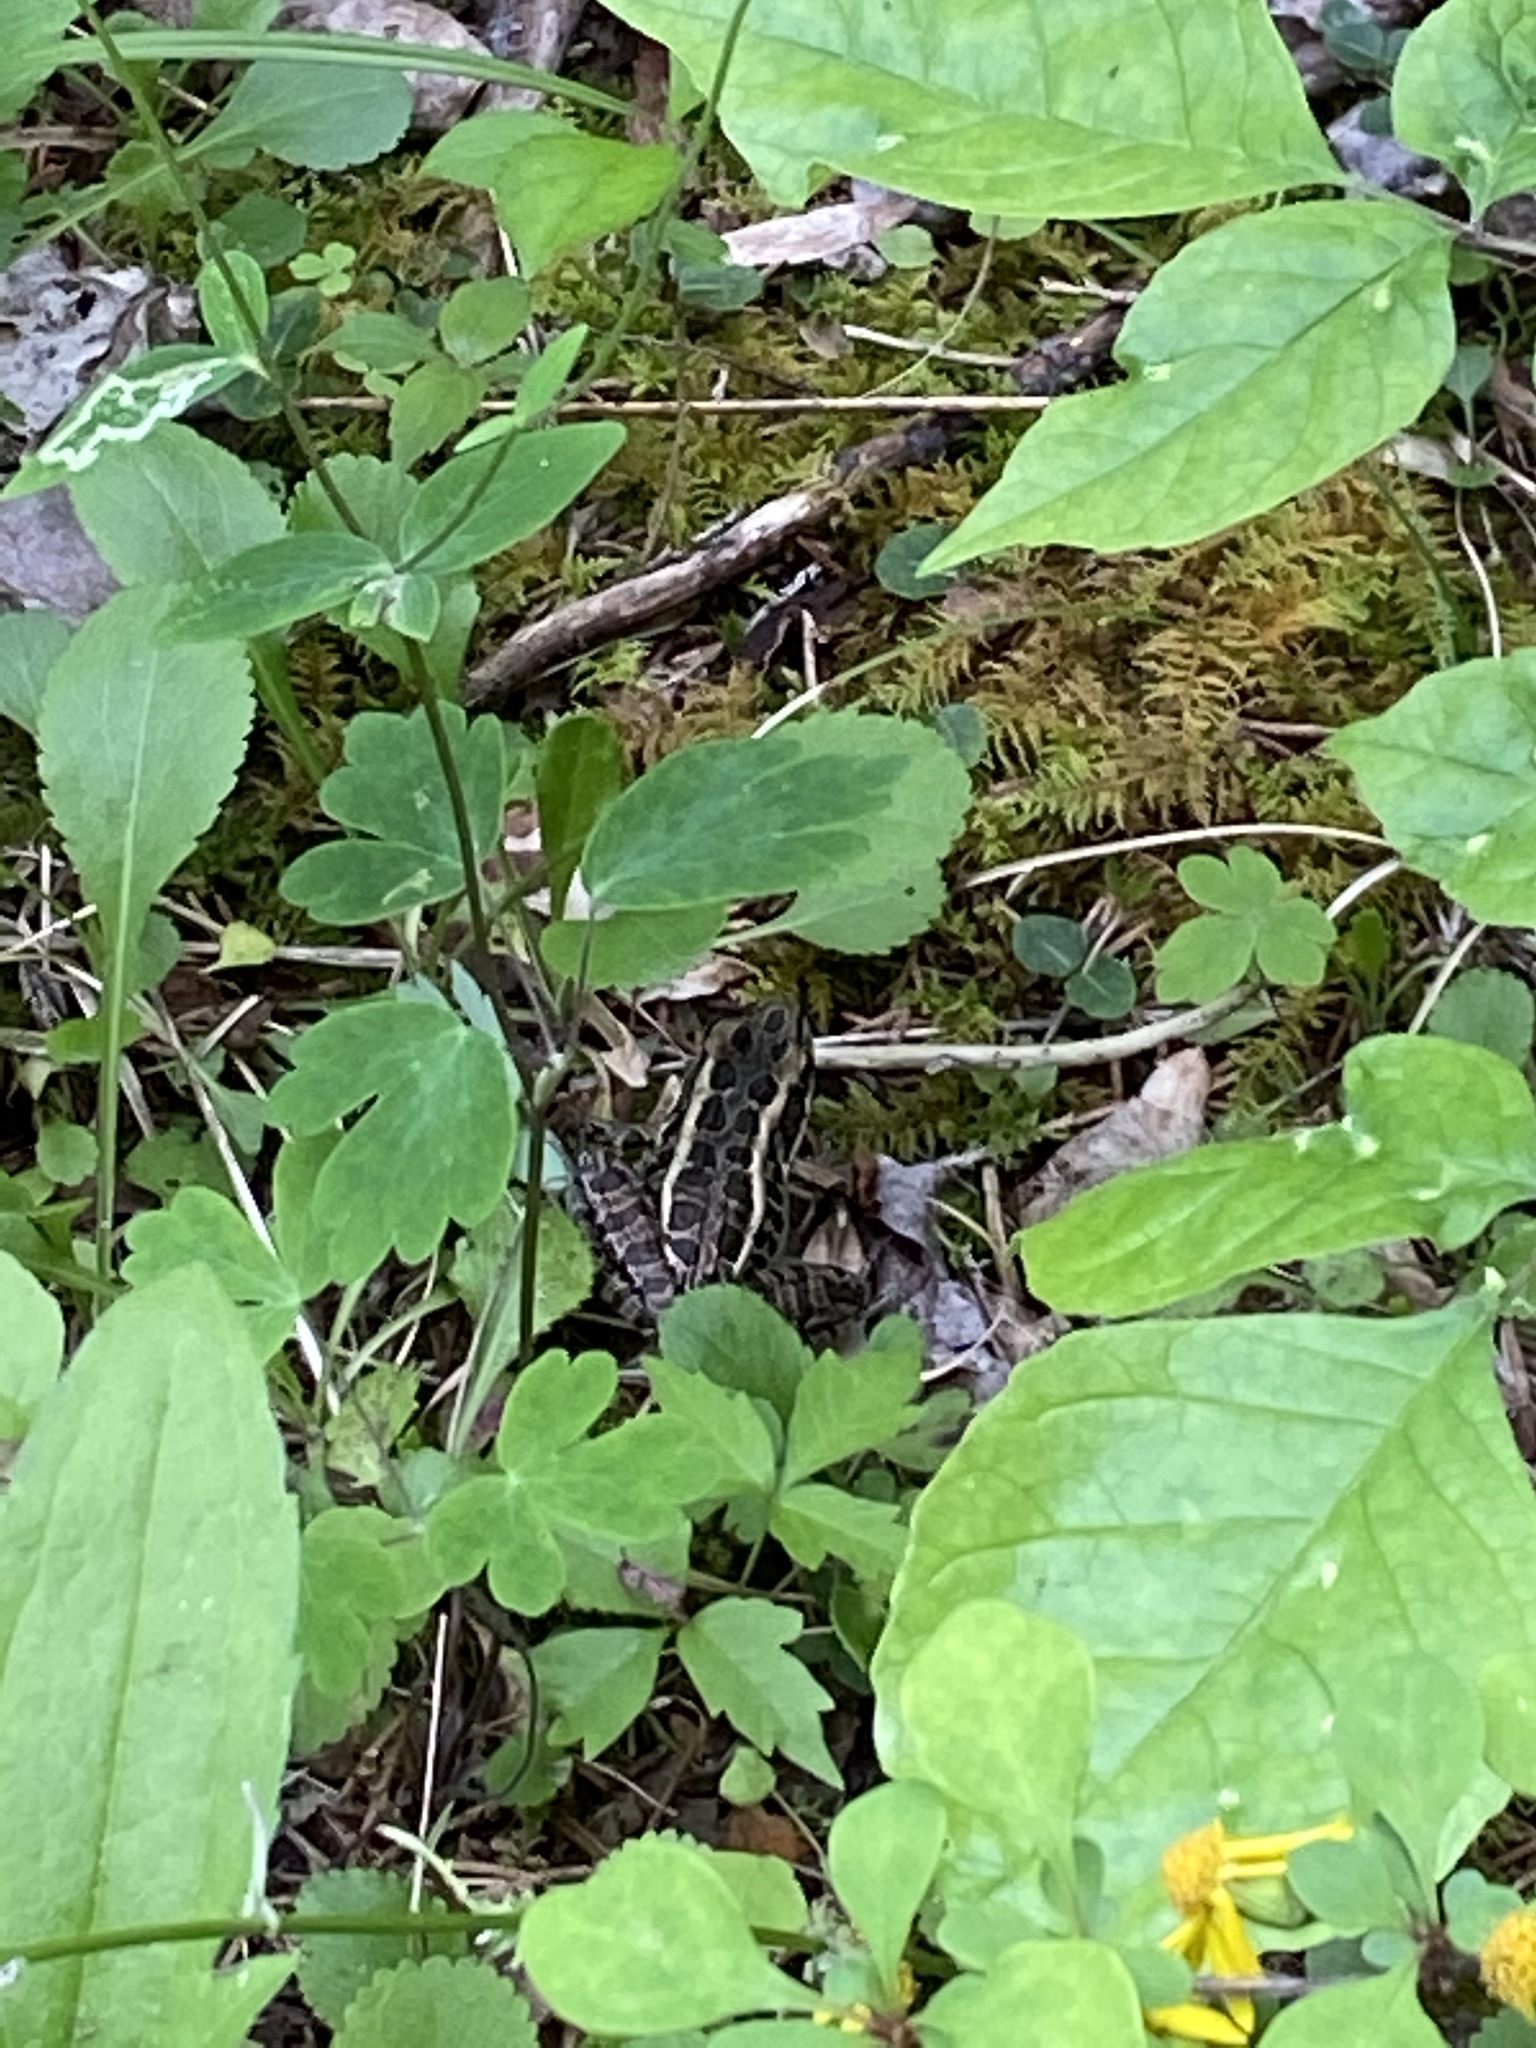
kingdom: Animalia
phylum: Chordata
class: Amphibia
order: Anura
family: Ranidae
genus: Lithobates
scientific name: Lithobates palustris
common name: Pickerel frog
